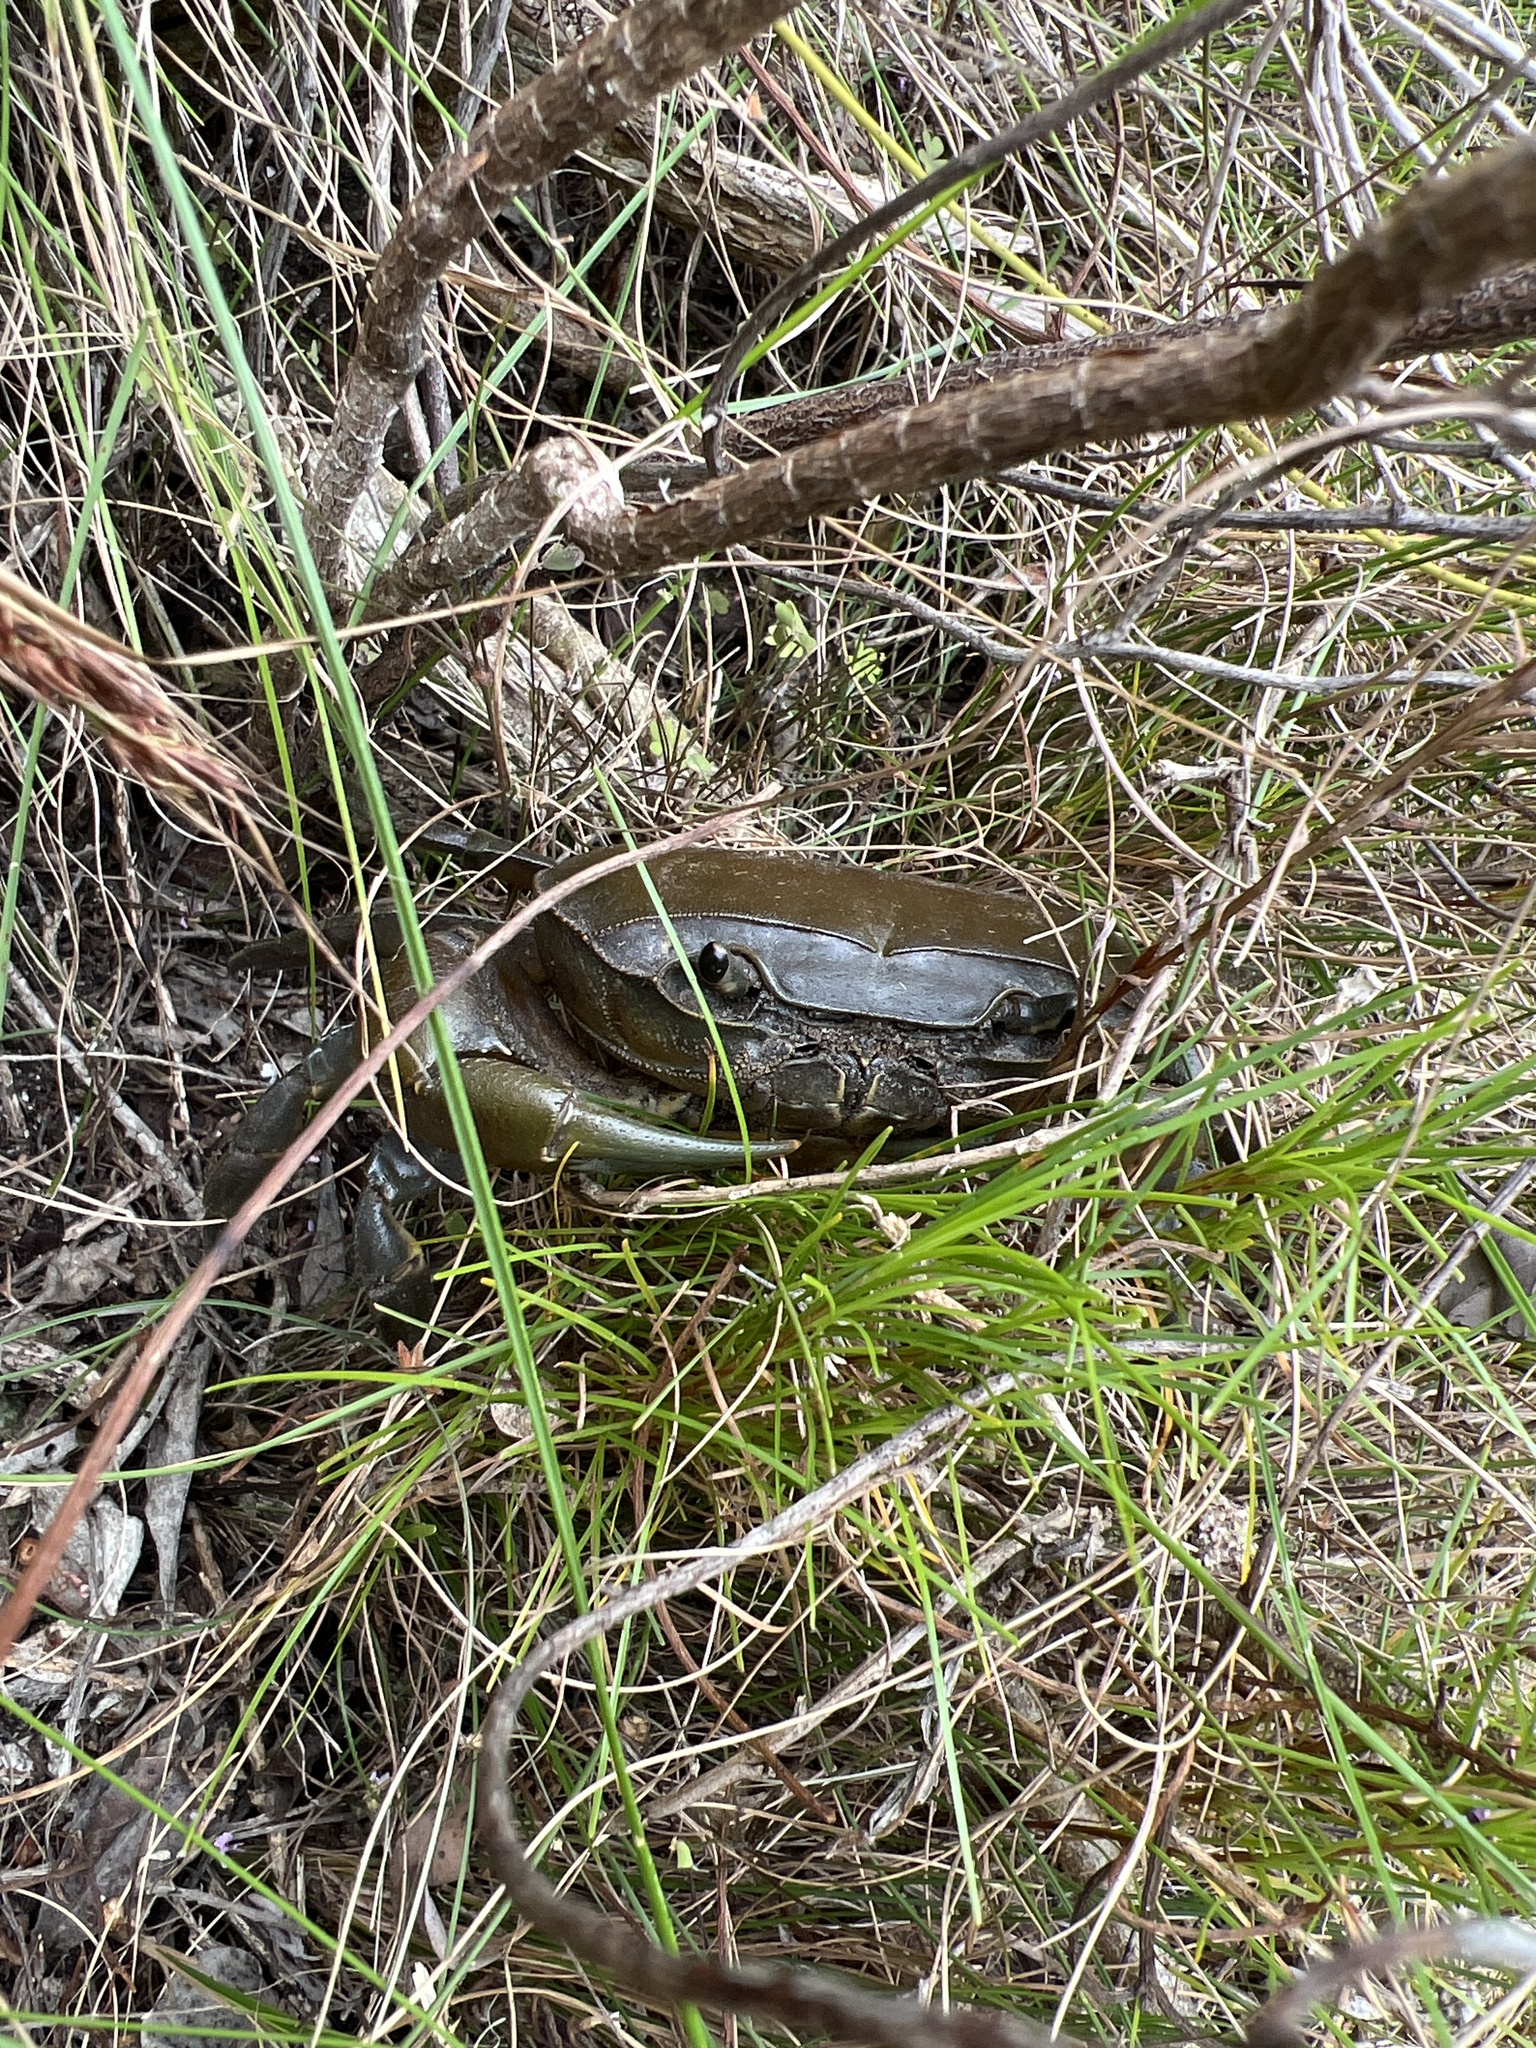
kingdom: Animalia
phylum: Arthropoda
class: Malacostraca
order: Decapoda
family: Potamonautidae
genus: Potamonautes
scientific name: Potamonautes perlatus
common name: Cape river crab
